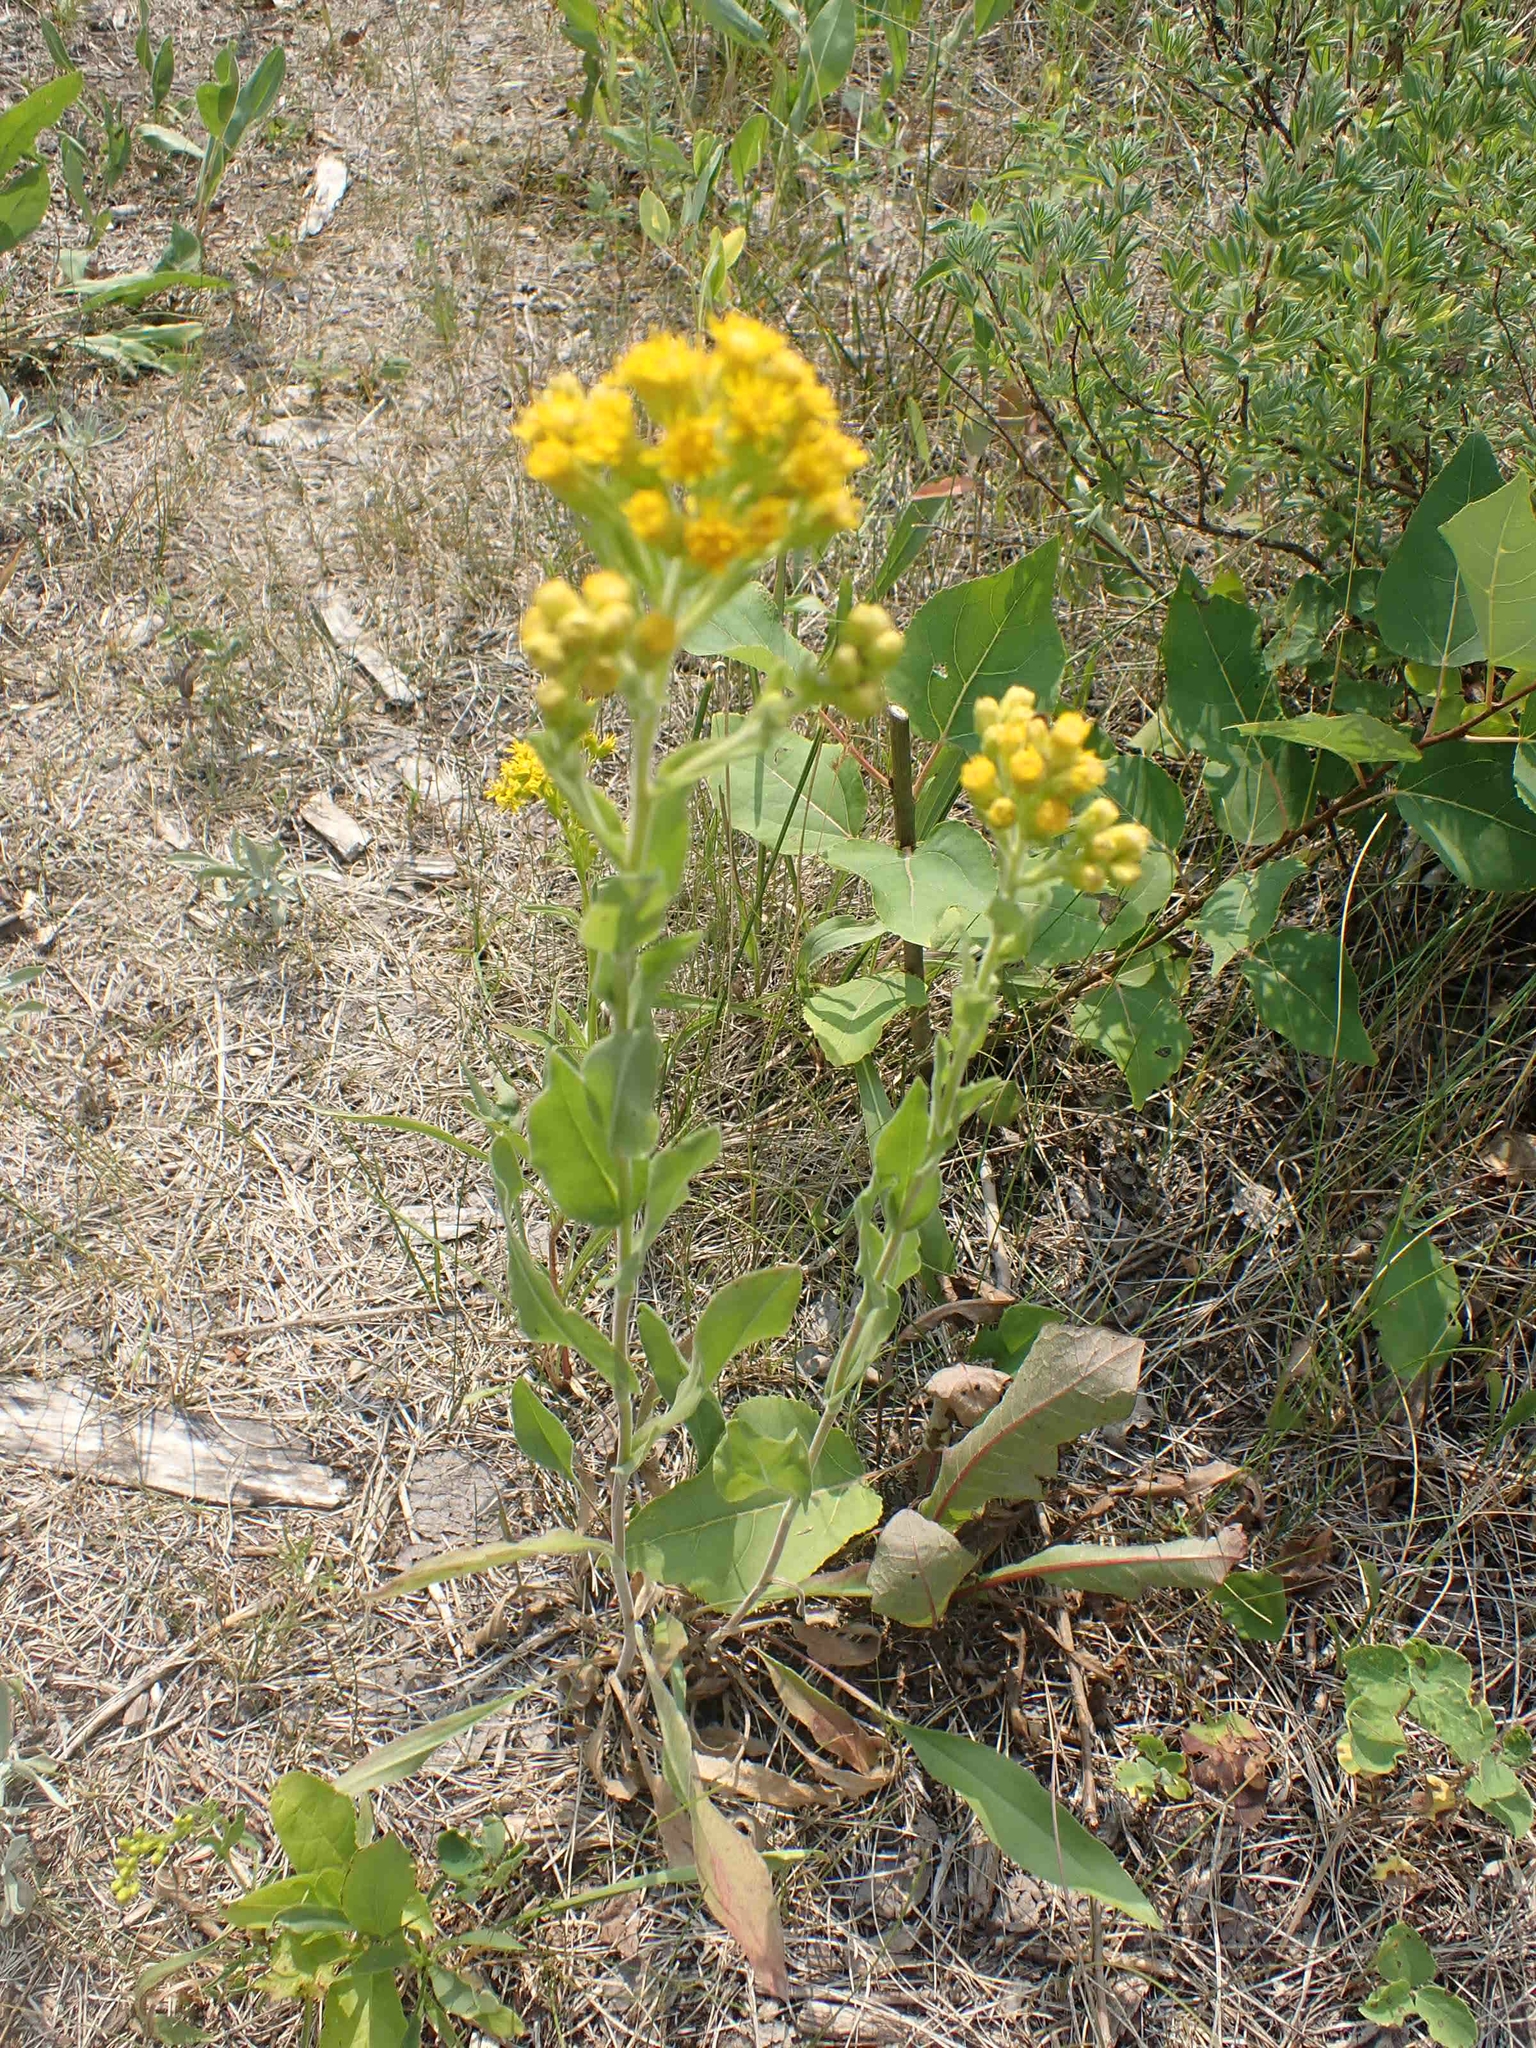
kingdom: Plantae
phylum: Tracheophyta
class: Magnoliopsida
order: Asterales
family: Asteraceae
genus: Solidago
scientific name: Solidago rigida
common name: Rigid goldenrod
